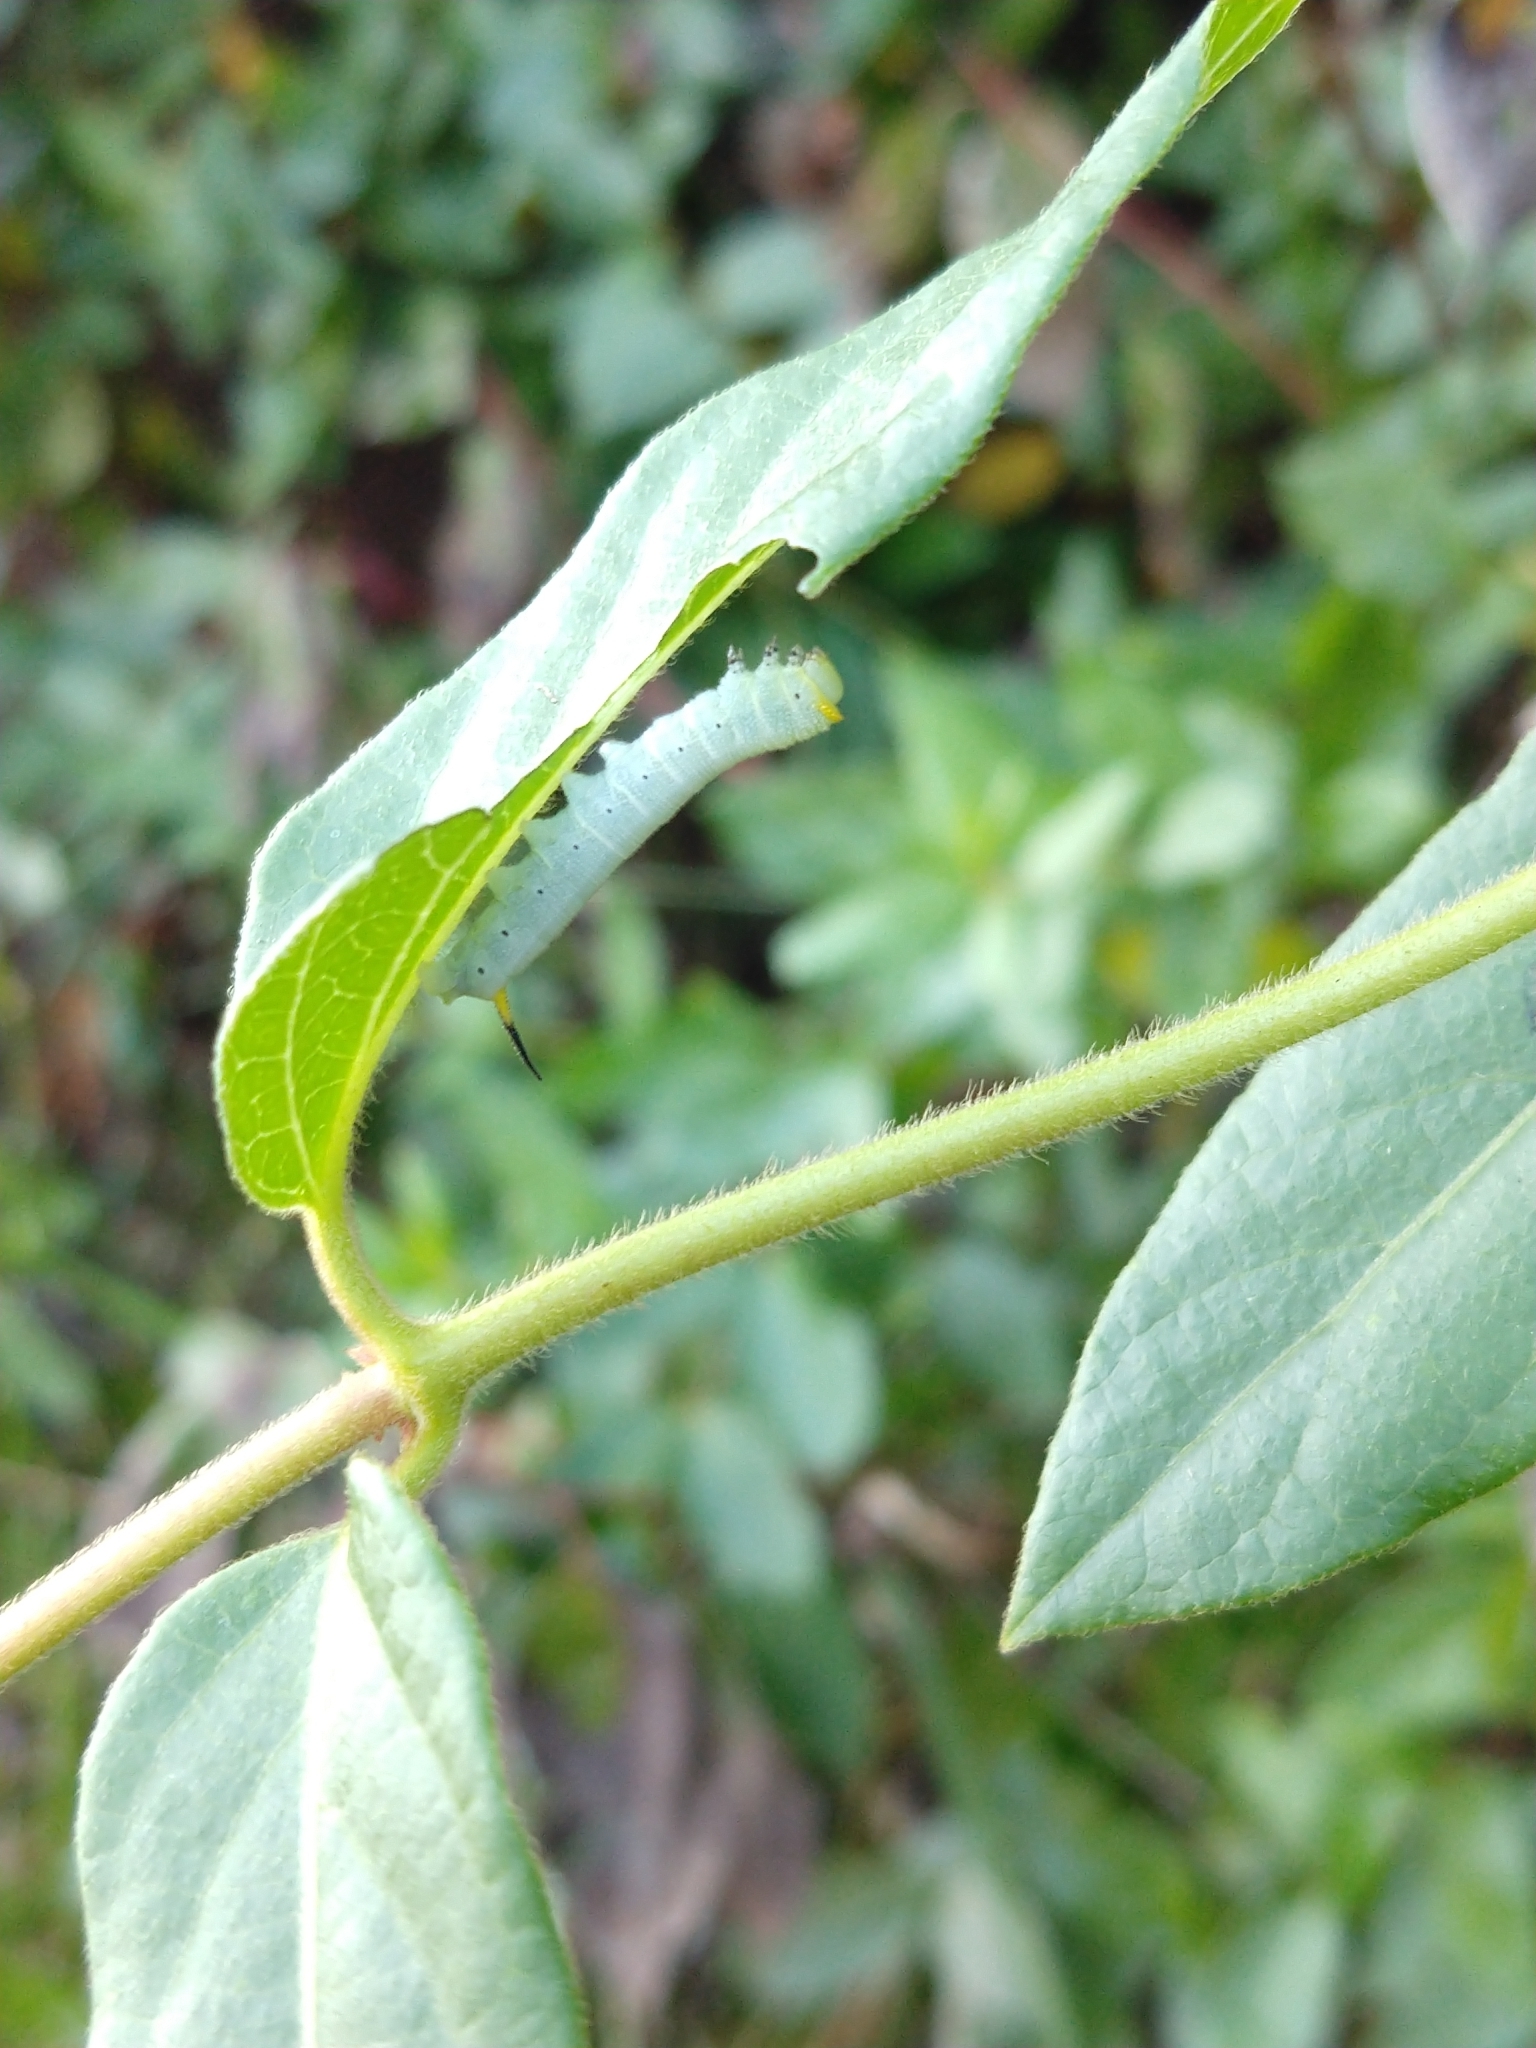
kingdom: Animalia
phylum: Arthropoda
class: Insecta
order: Lepidoptera
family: Sphingidae
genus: Hemaris
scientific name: Hemaris diffinis
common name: Bumblebee moth
